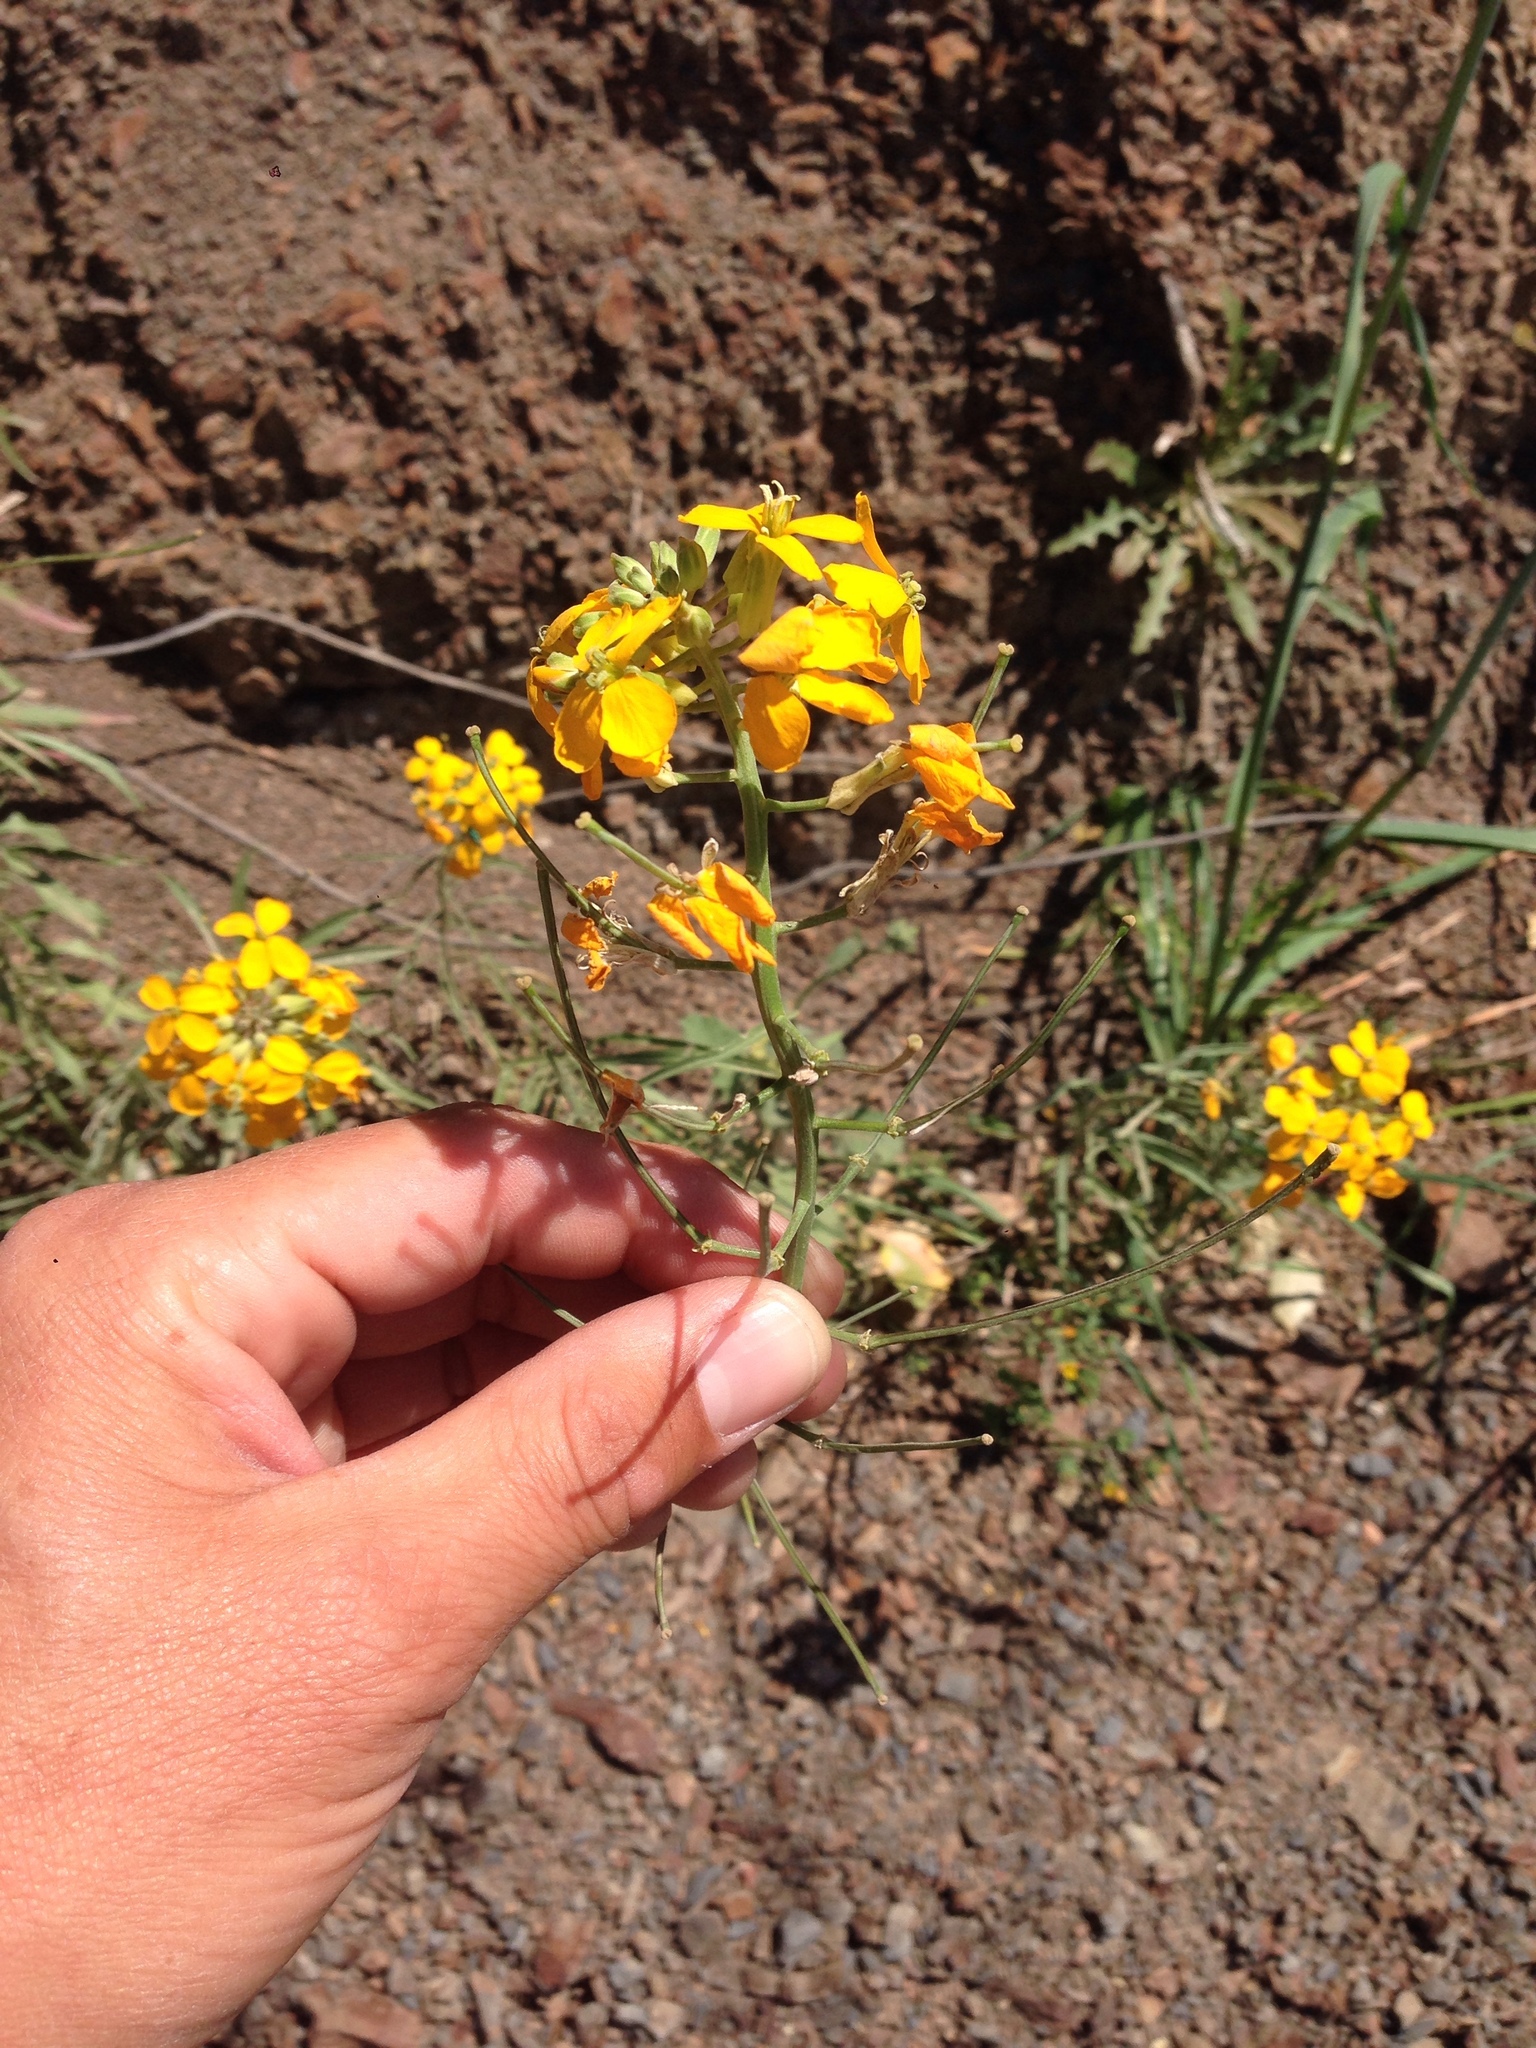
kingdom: Plantae
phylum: Tracheophyta
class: Magnoliopsida
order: Brassicales
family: Brassicaceae
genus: Erysimum
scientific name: Erysimum capitatum
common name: Western wallflower
